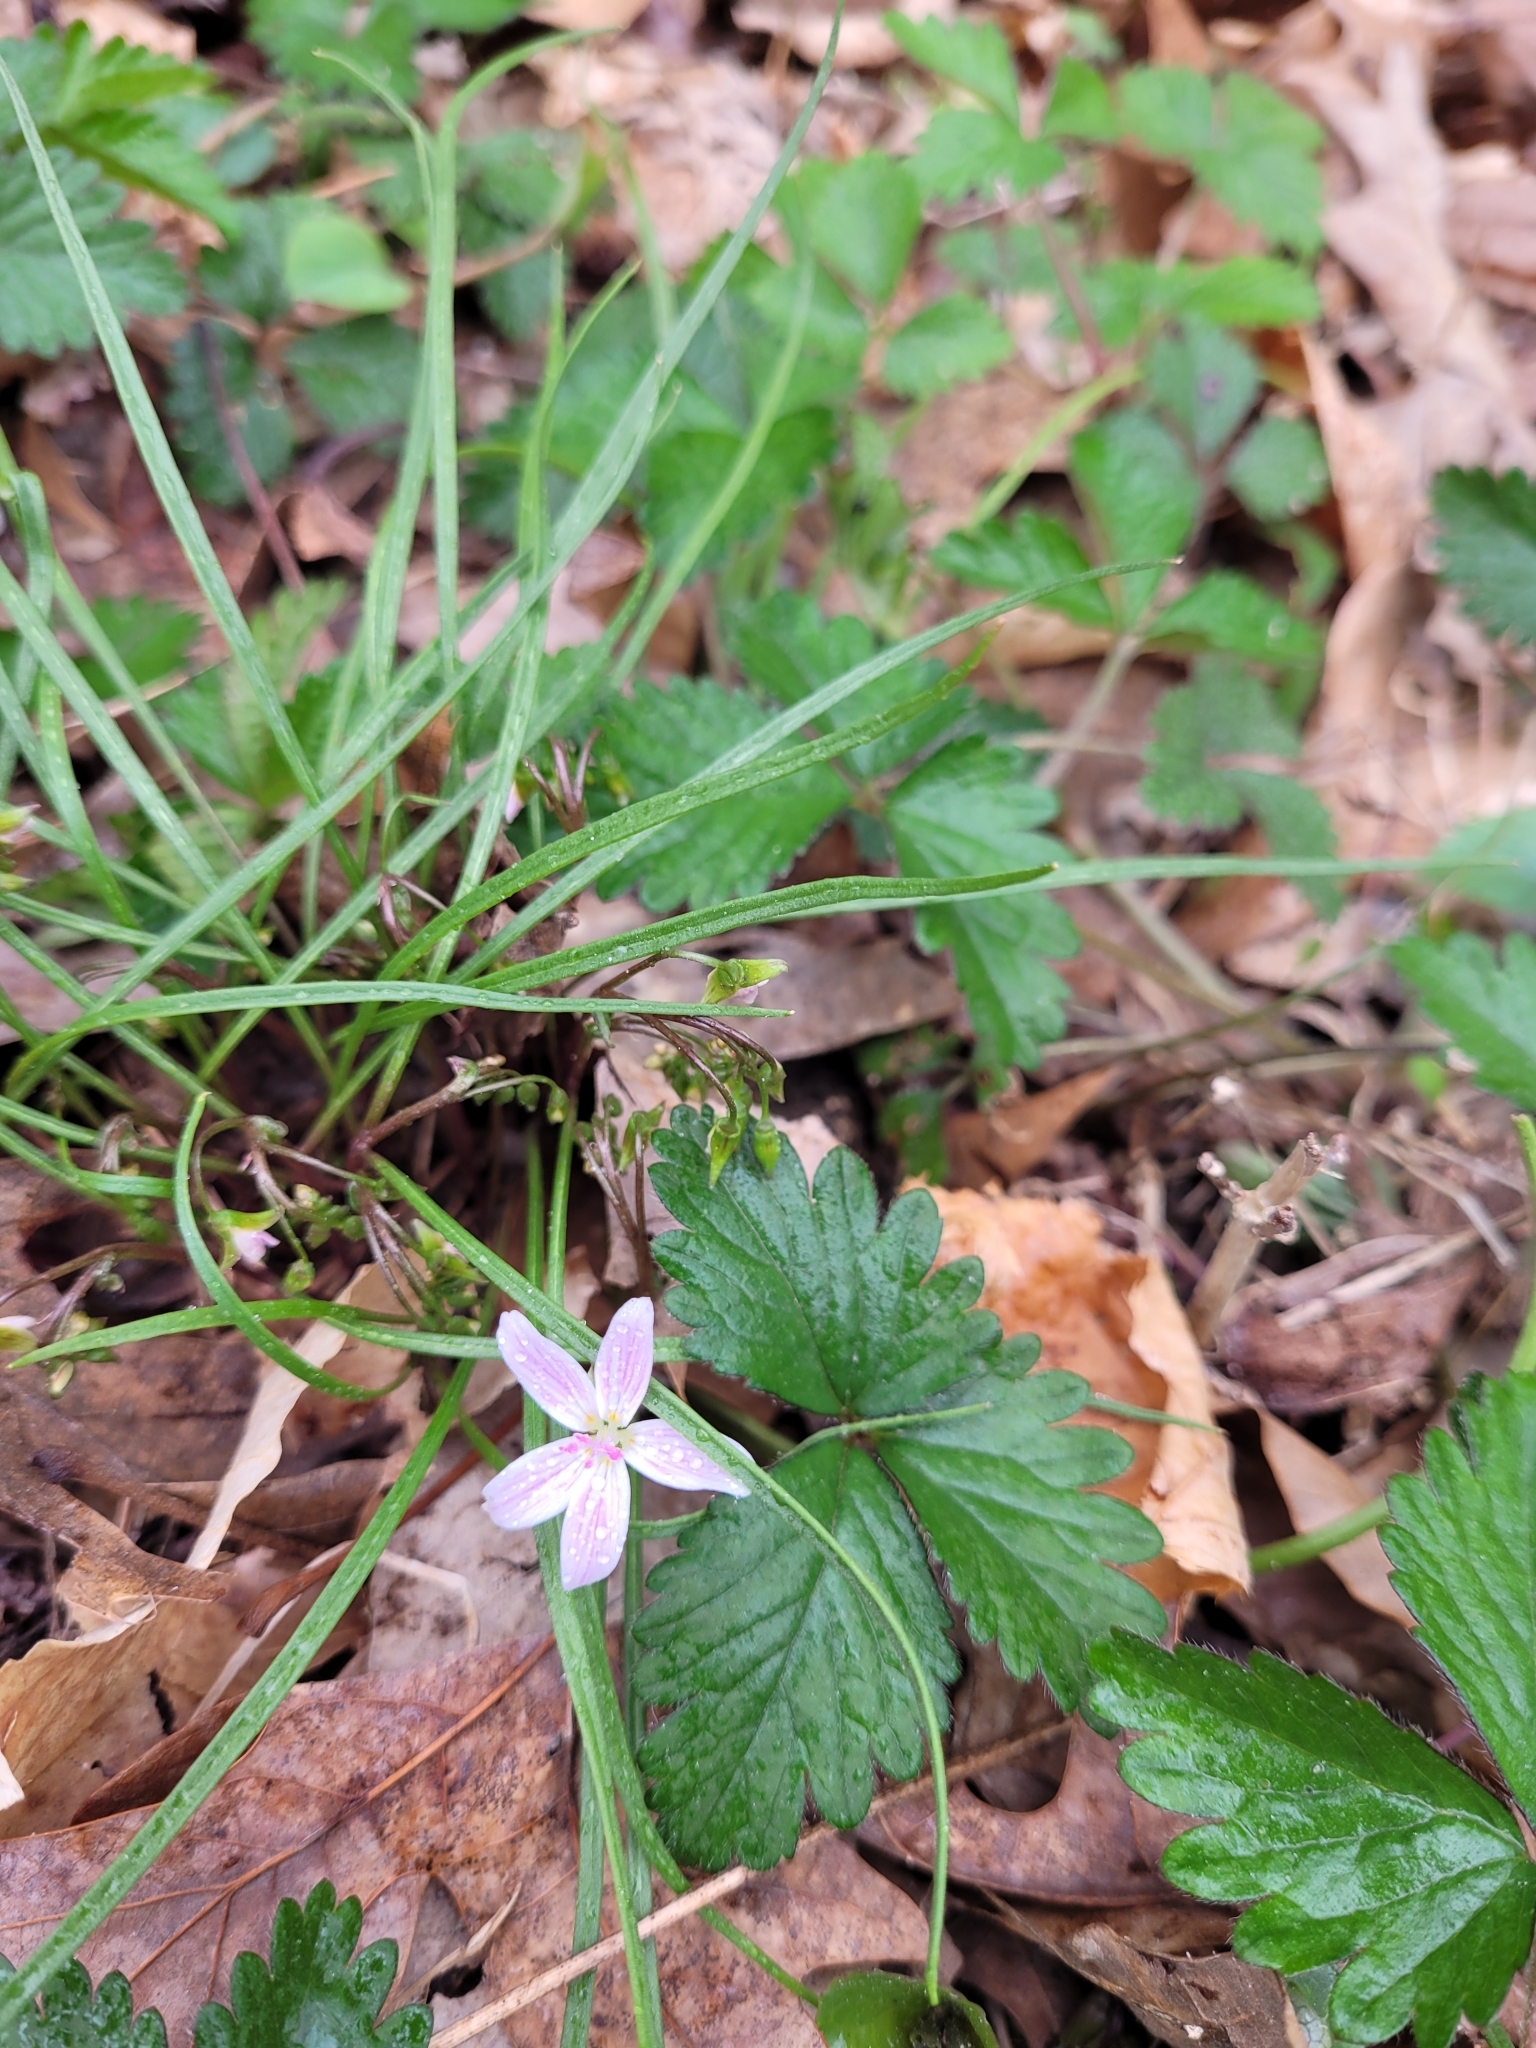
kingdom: Plantae
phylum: Tracheophyta
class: Magnoliopsida
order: Caryophyllales
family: Montiaceae
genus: Claytonia
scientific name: Claytonia virginica
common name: Virginia springbeauty
